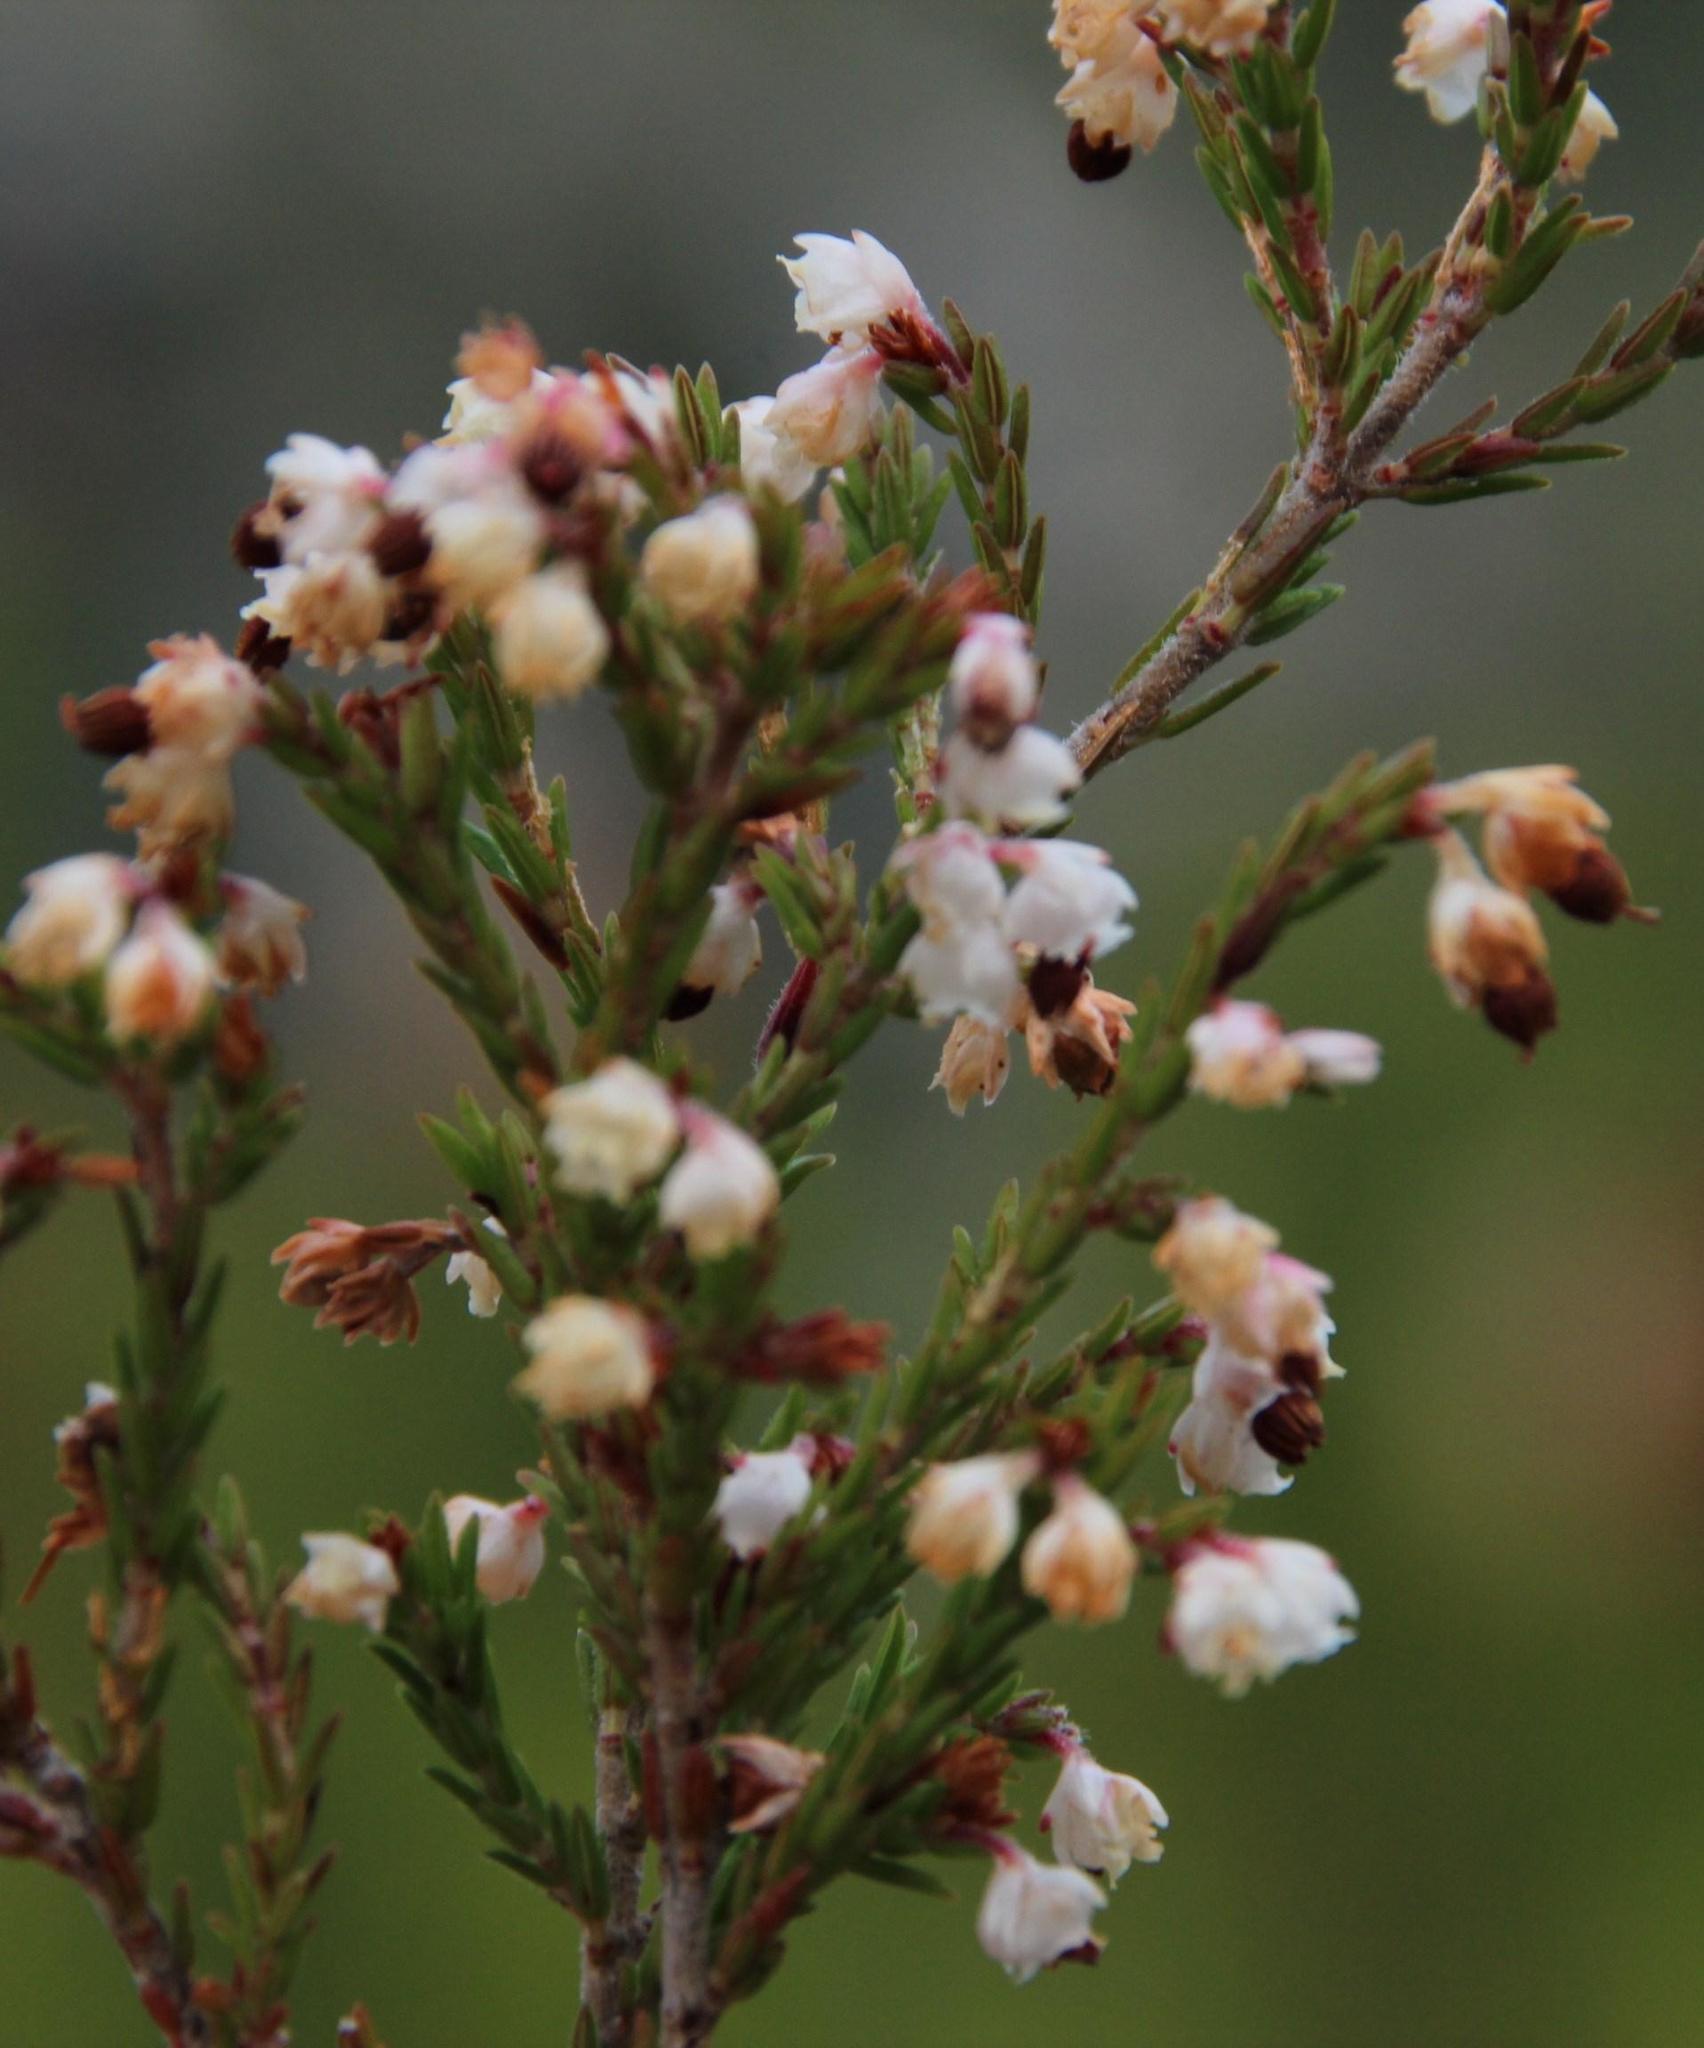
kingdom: Plantae
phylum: Tracheophyta
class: Magnoliopsida
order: Ericales
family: Ericaceae
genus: Erica
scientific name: Erica triceps
